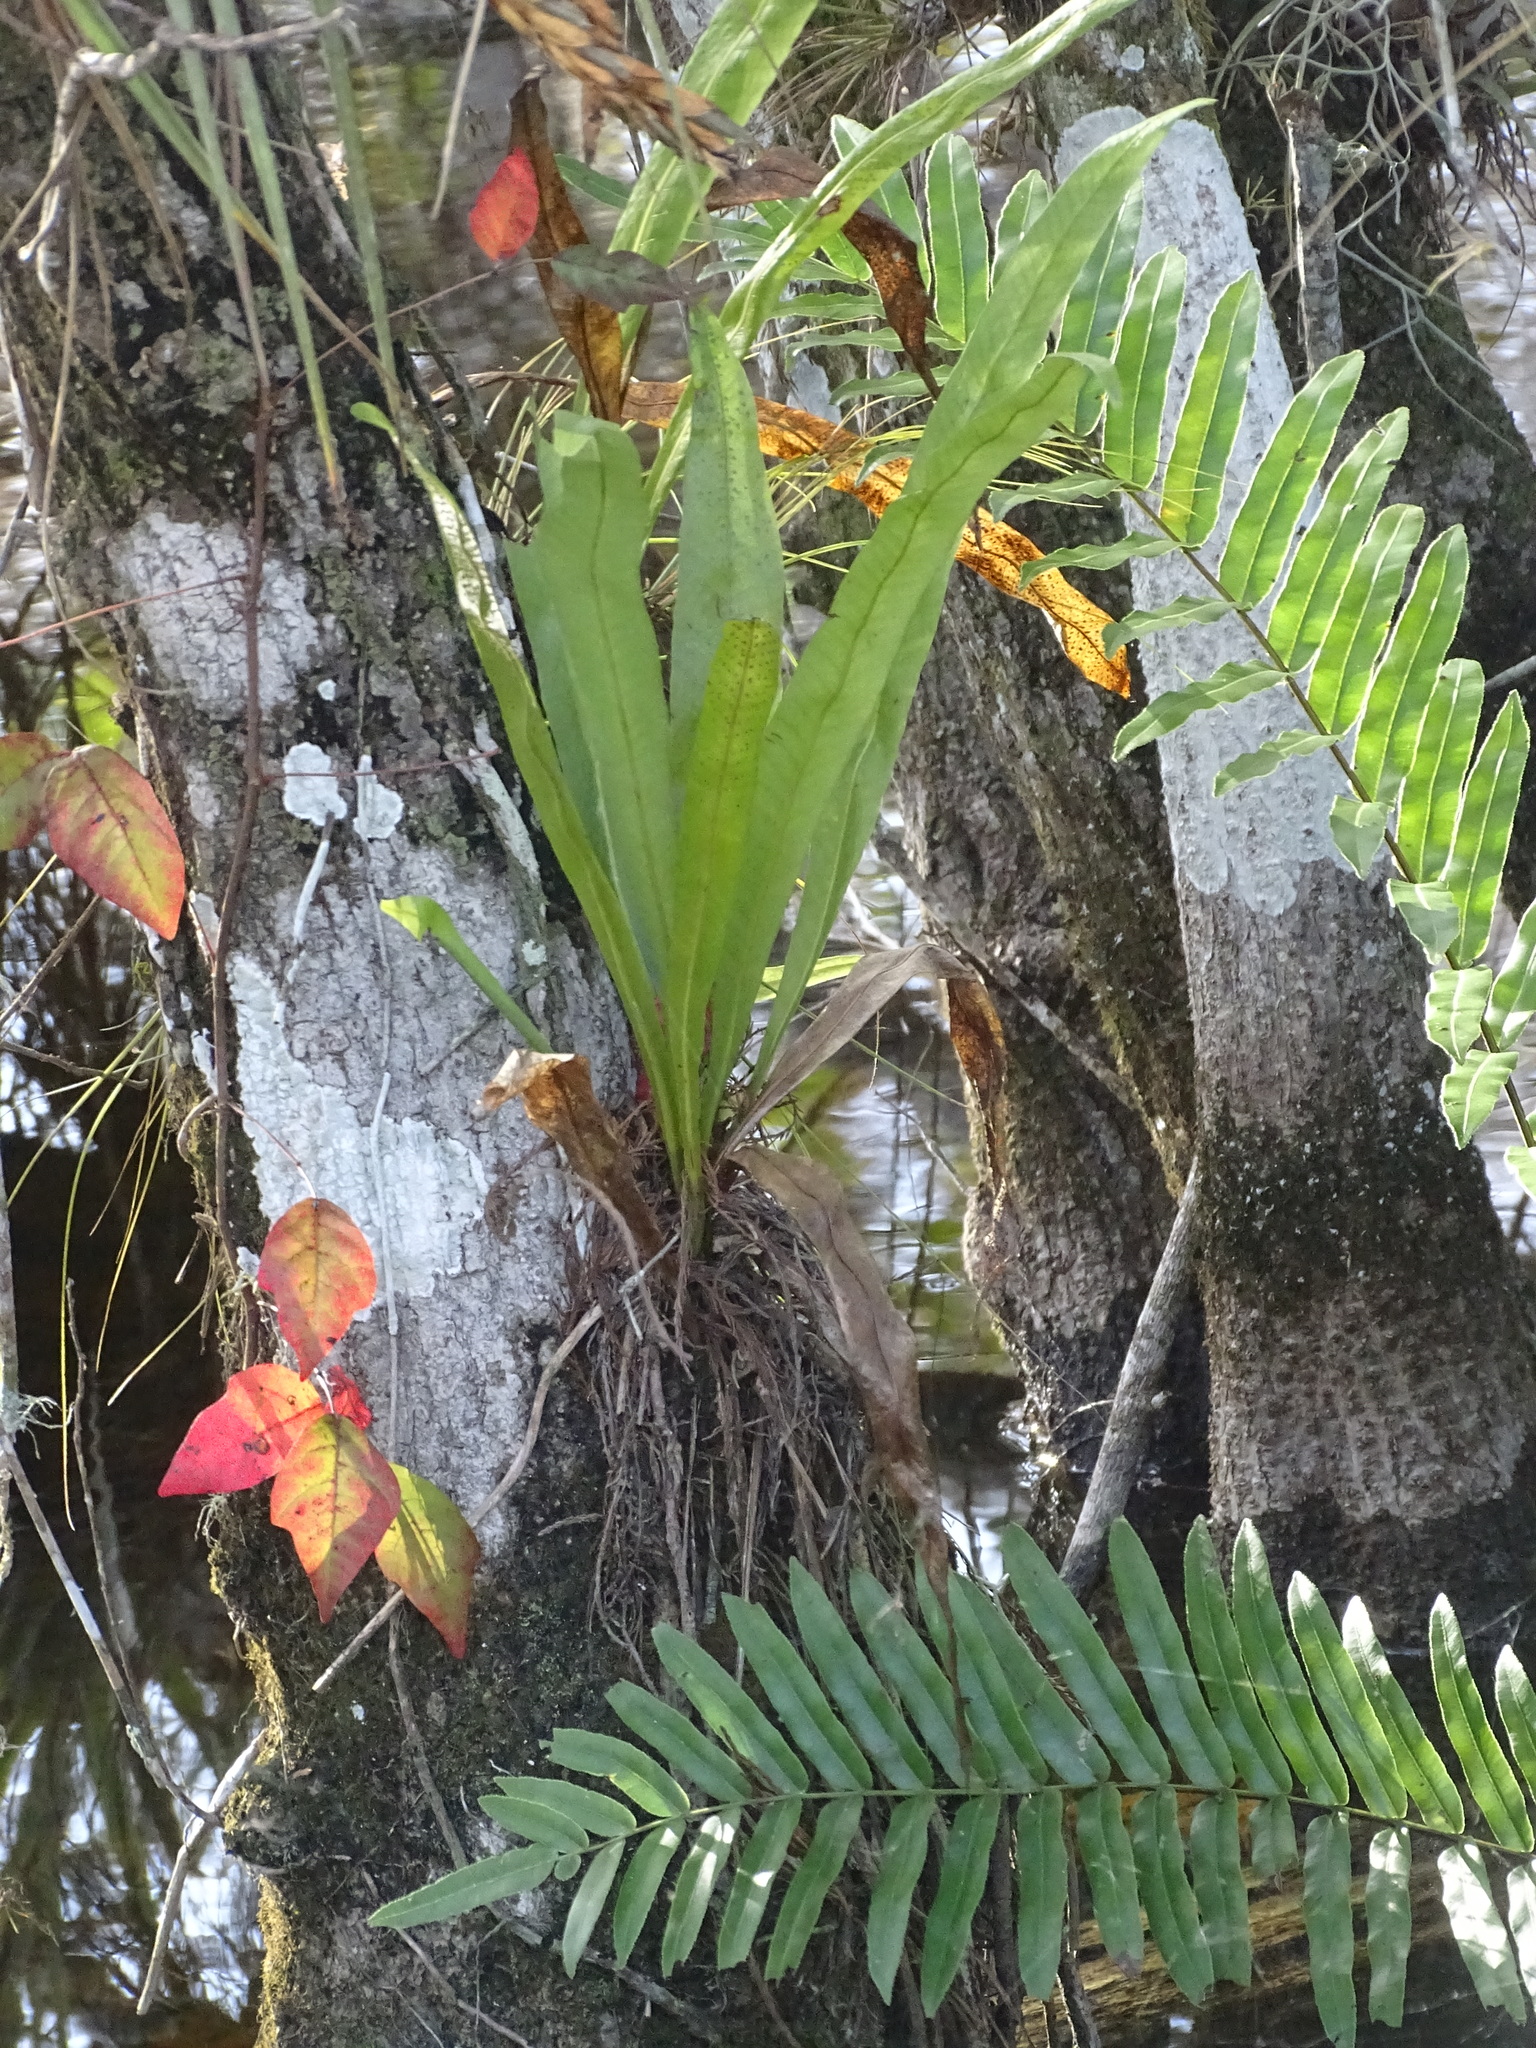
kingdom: Plantae
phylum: Tracheophyta
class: Polypodiopsida
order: Polypodiales
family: Polypodiaceae
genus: Campyloneurum
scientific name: Campyloneurum phyllitidis
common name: Cow-tongue fern
